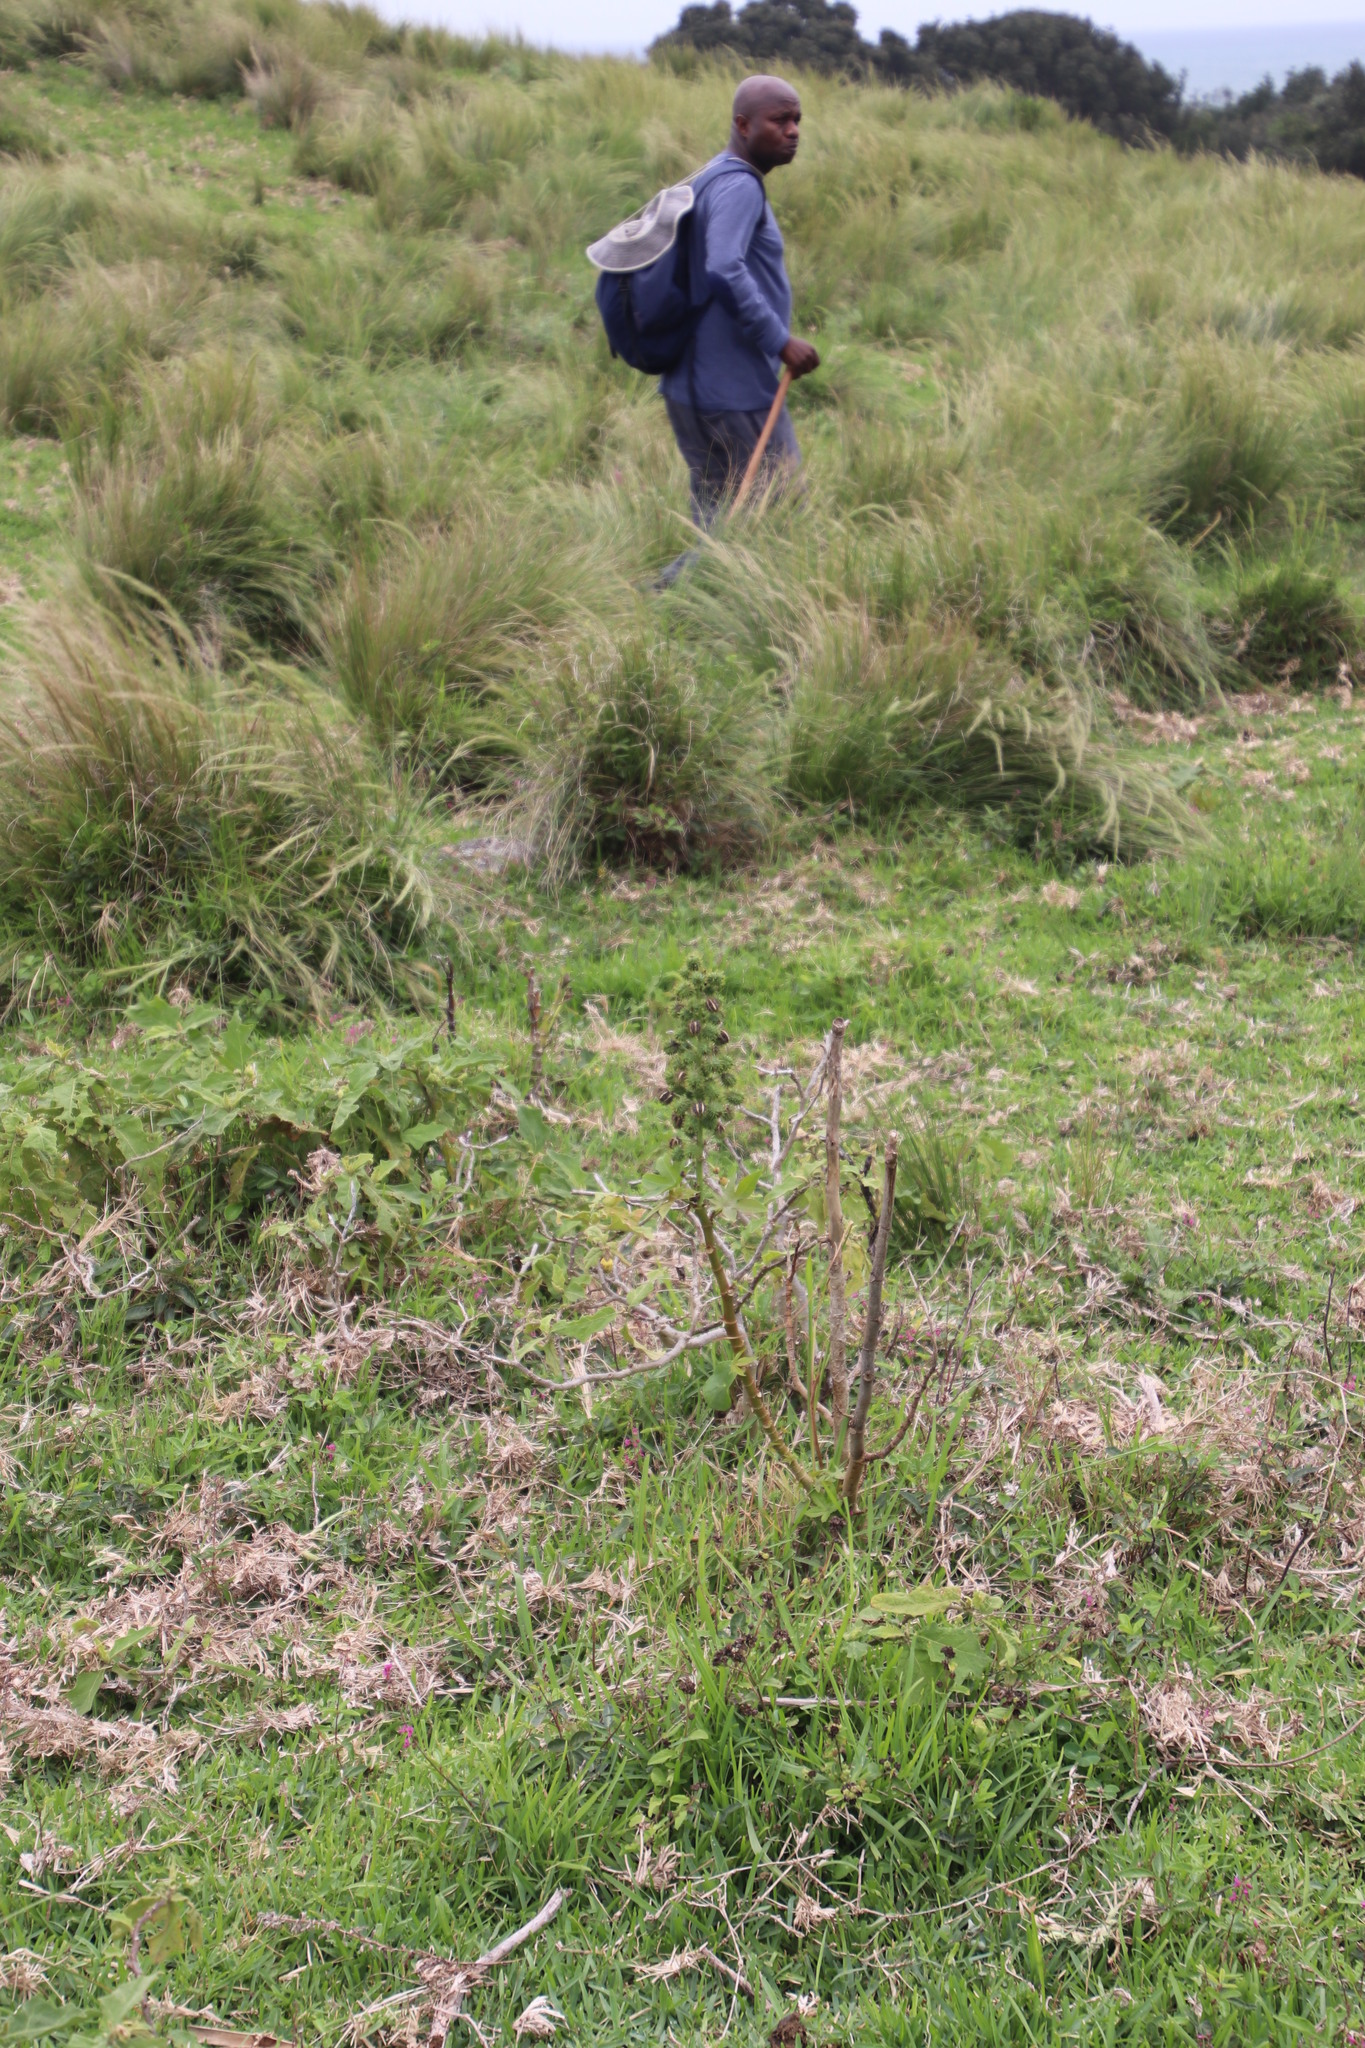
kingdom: Plantae
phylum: Tracheophyta
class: Magnoliopsida
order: Malpighiales
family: Euphorbiaceae
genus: Ricinus
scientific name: Ricinus communis
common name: Castor-oil-plant
